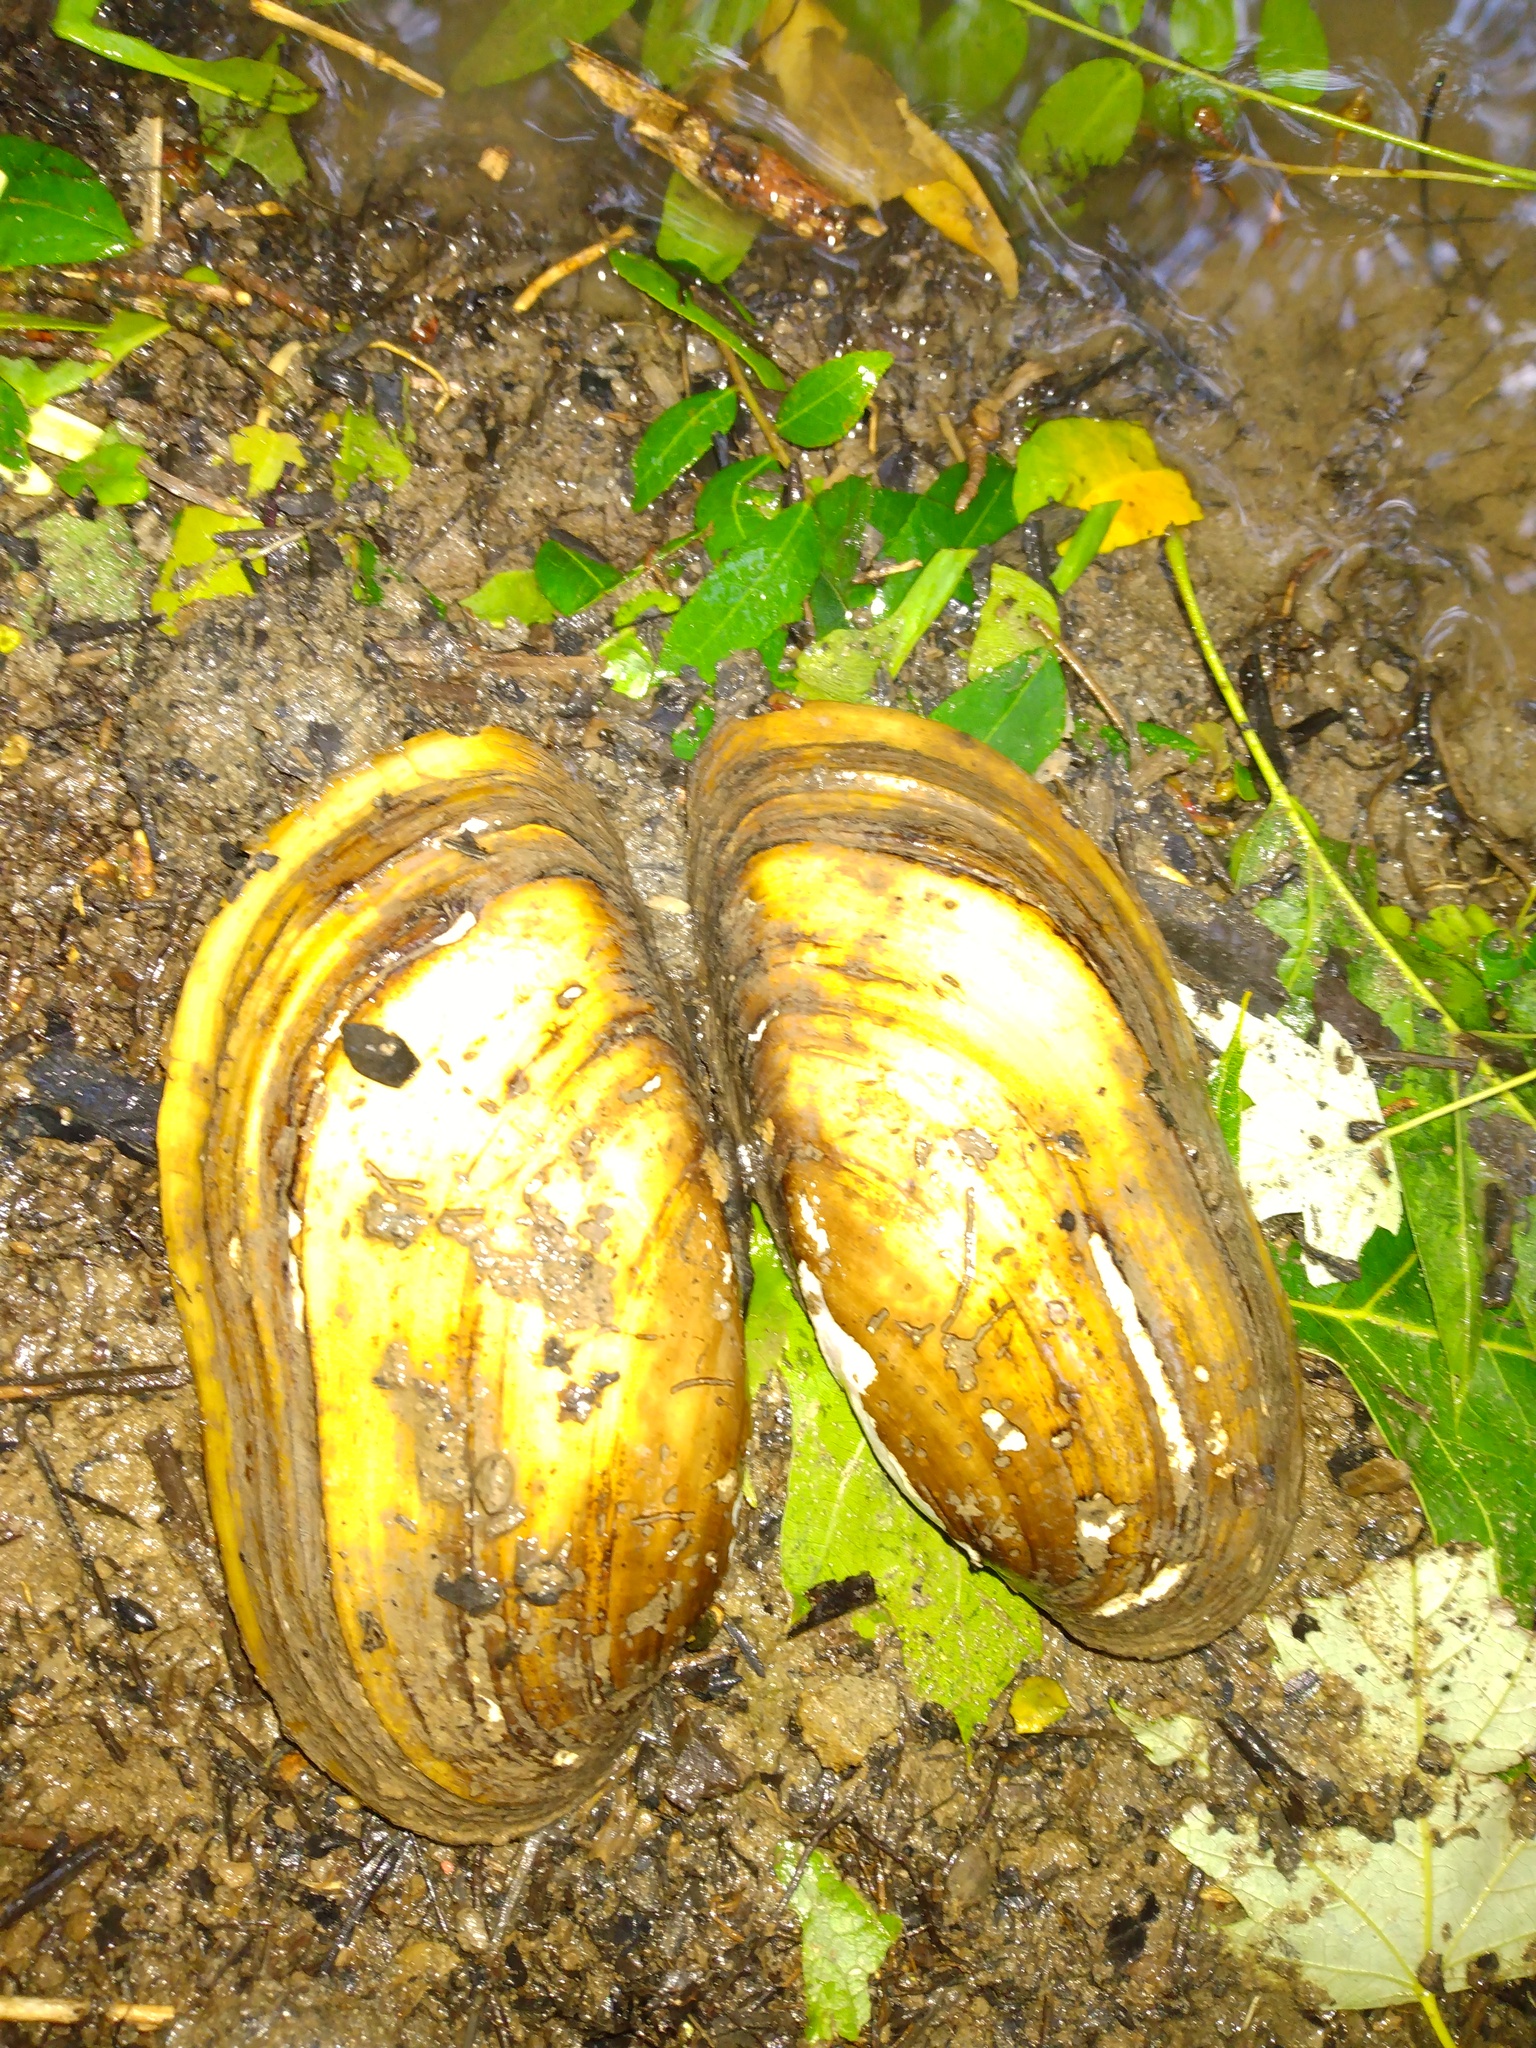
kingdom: Animalia
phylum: Mollusca
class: Bivalvia
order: Unionida
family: Unionidae
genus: Lampsilis
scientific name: Lampsilis teres
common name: Yellow sandshell
